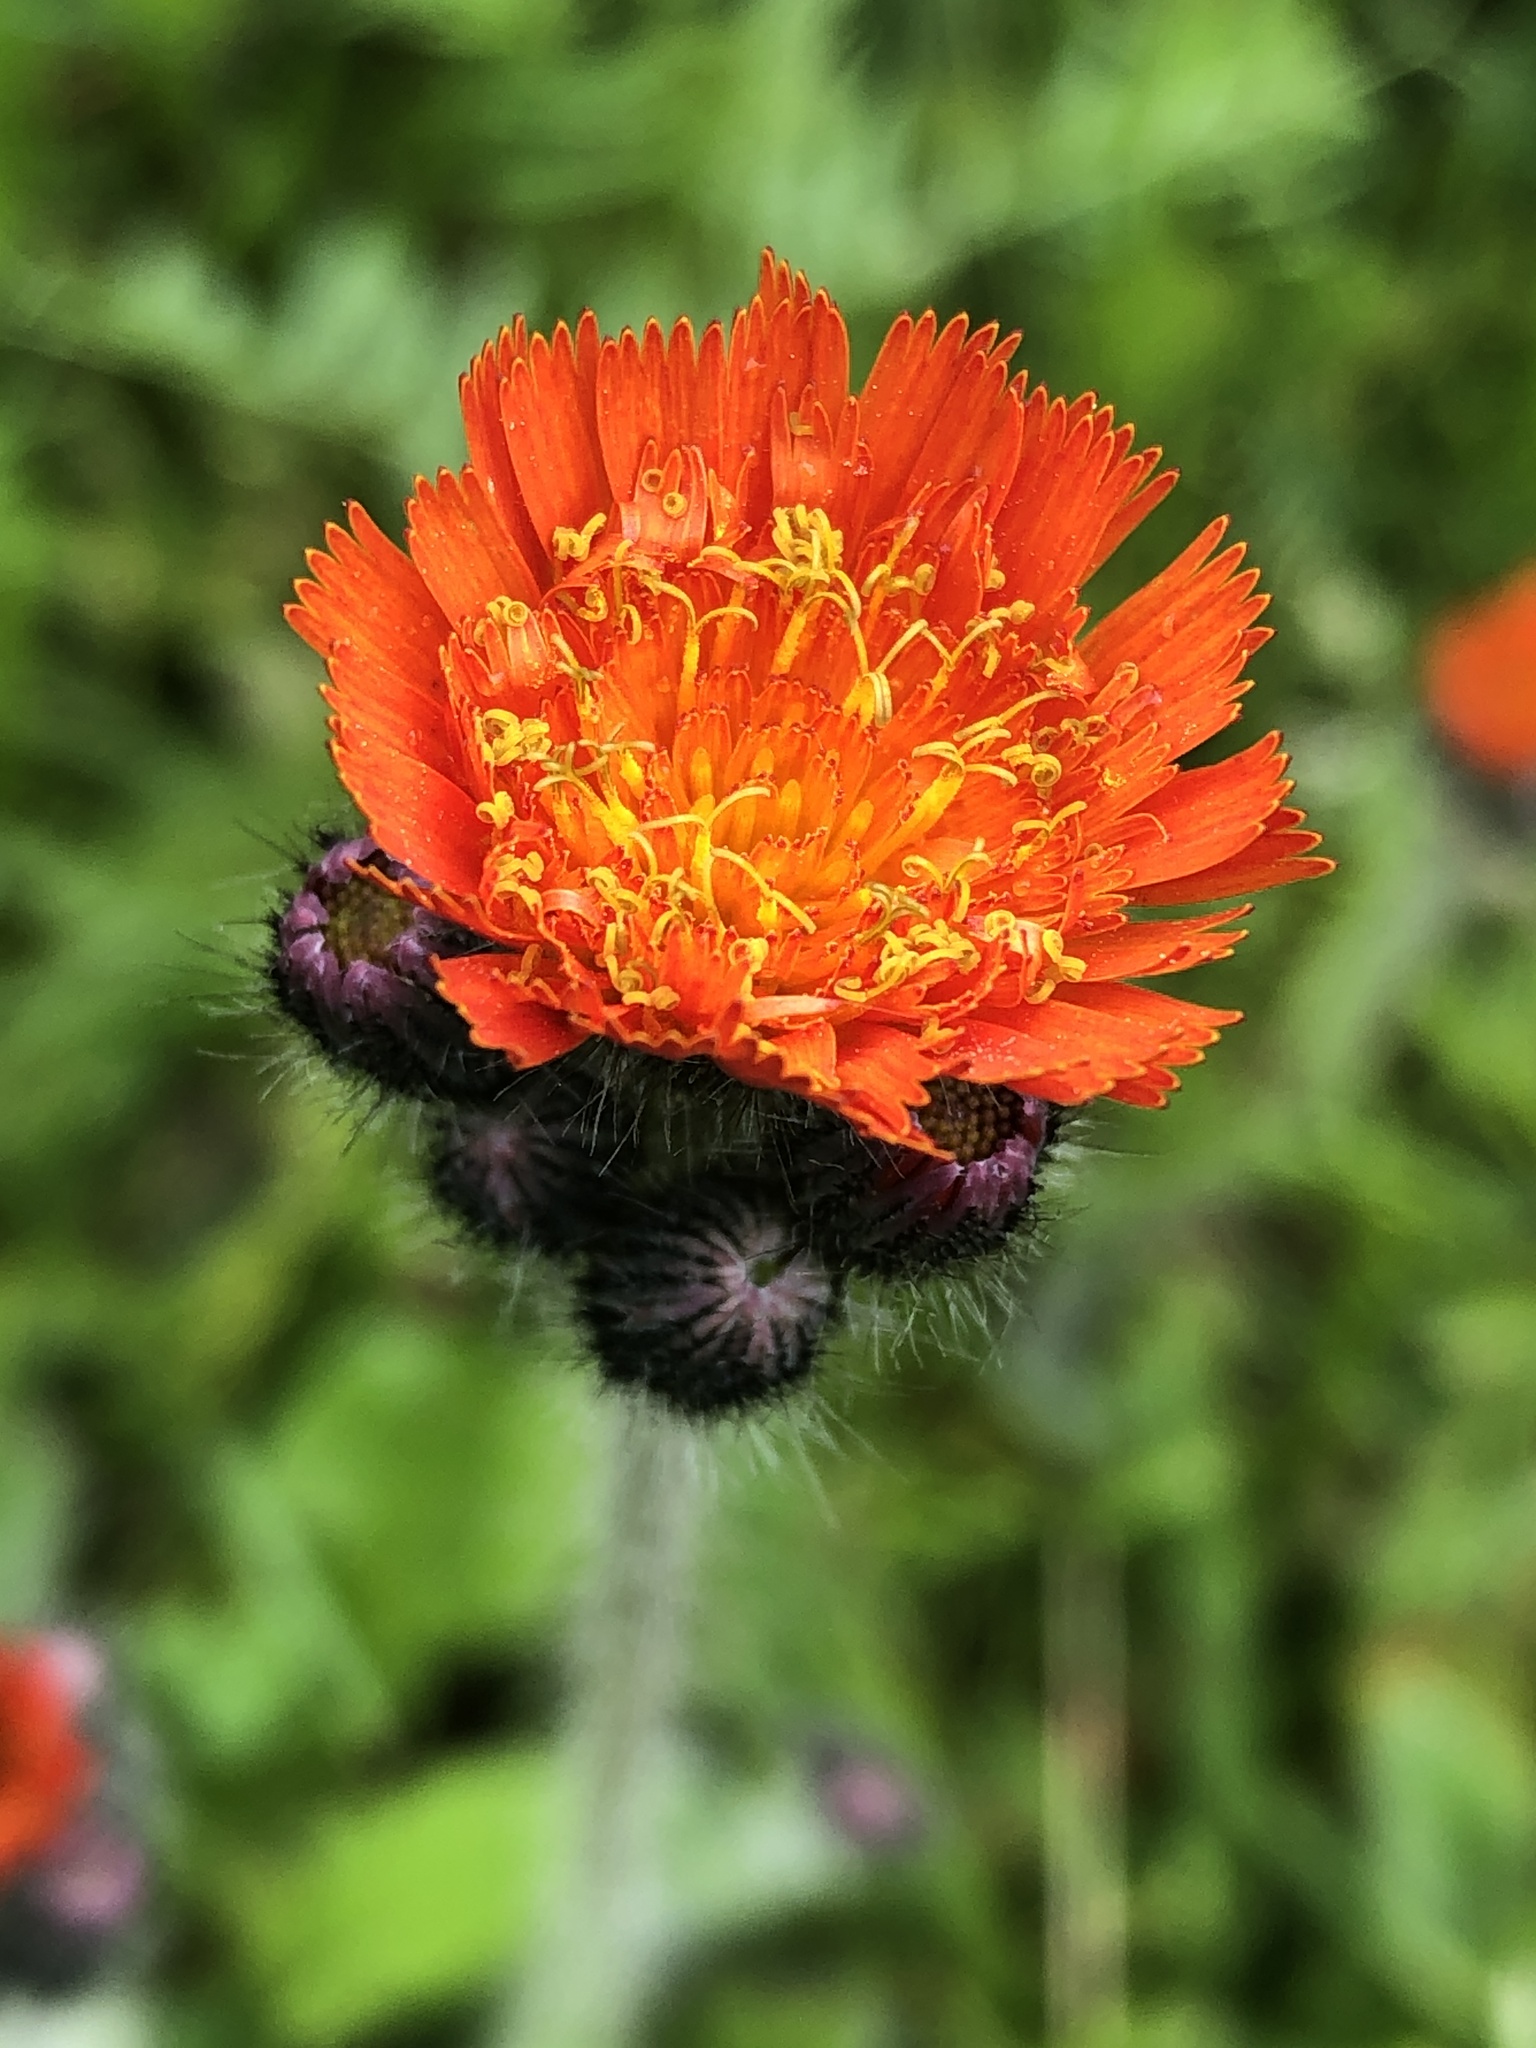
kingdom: Plantae
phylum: Tracheophyta
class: Magnoliopsida
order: Asterales
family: Asteraceae
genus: Pilosella
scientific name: Pilosella aurantiaca
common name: Fox-and-cubs
